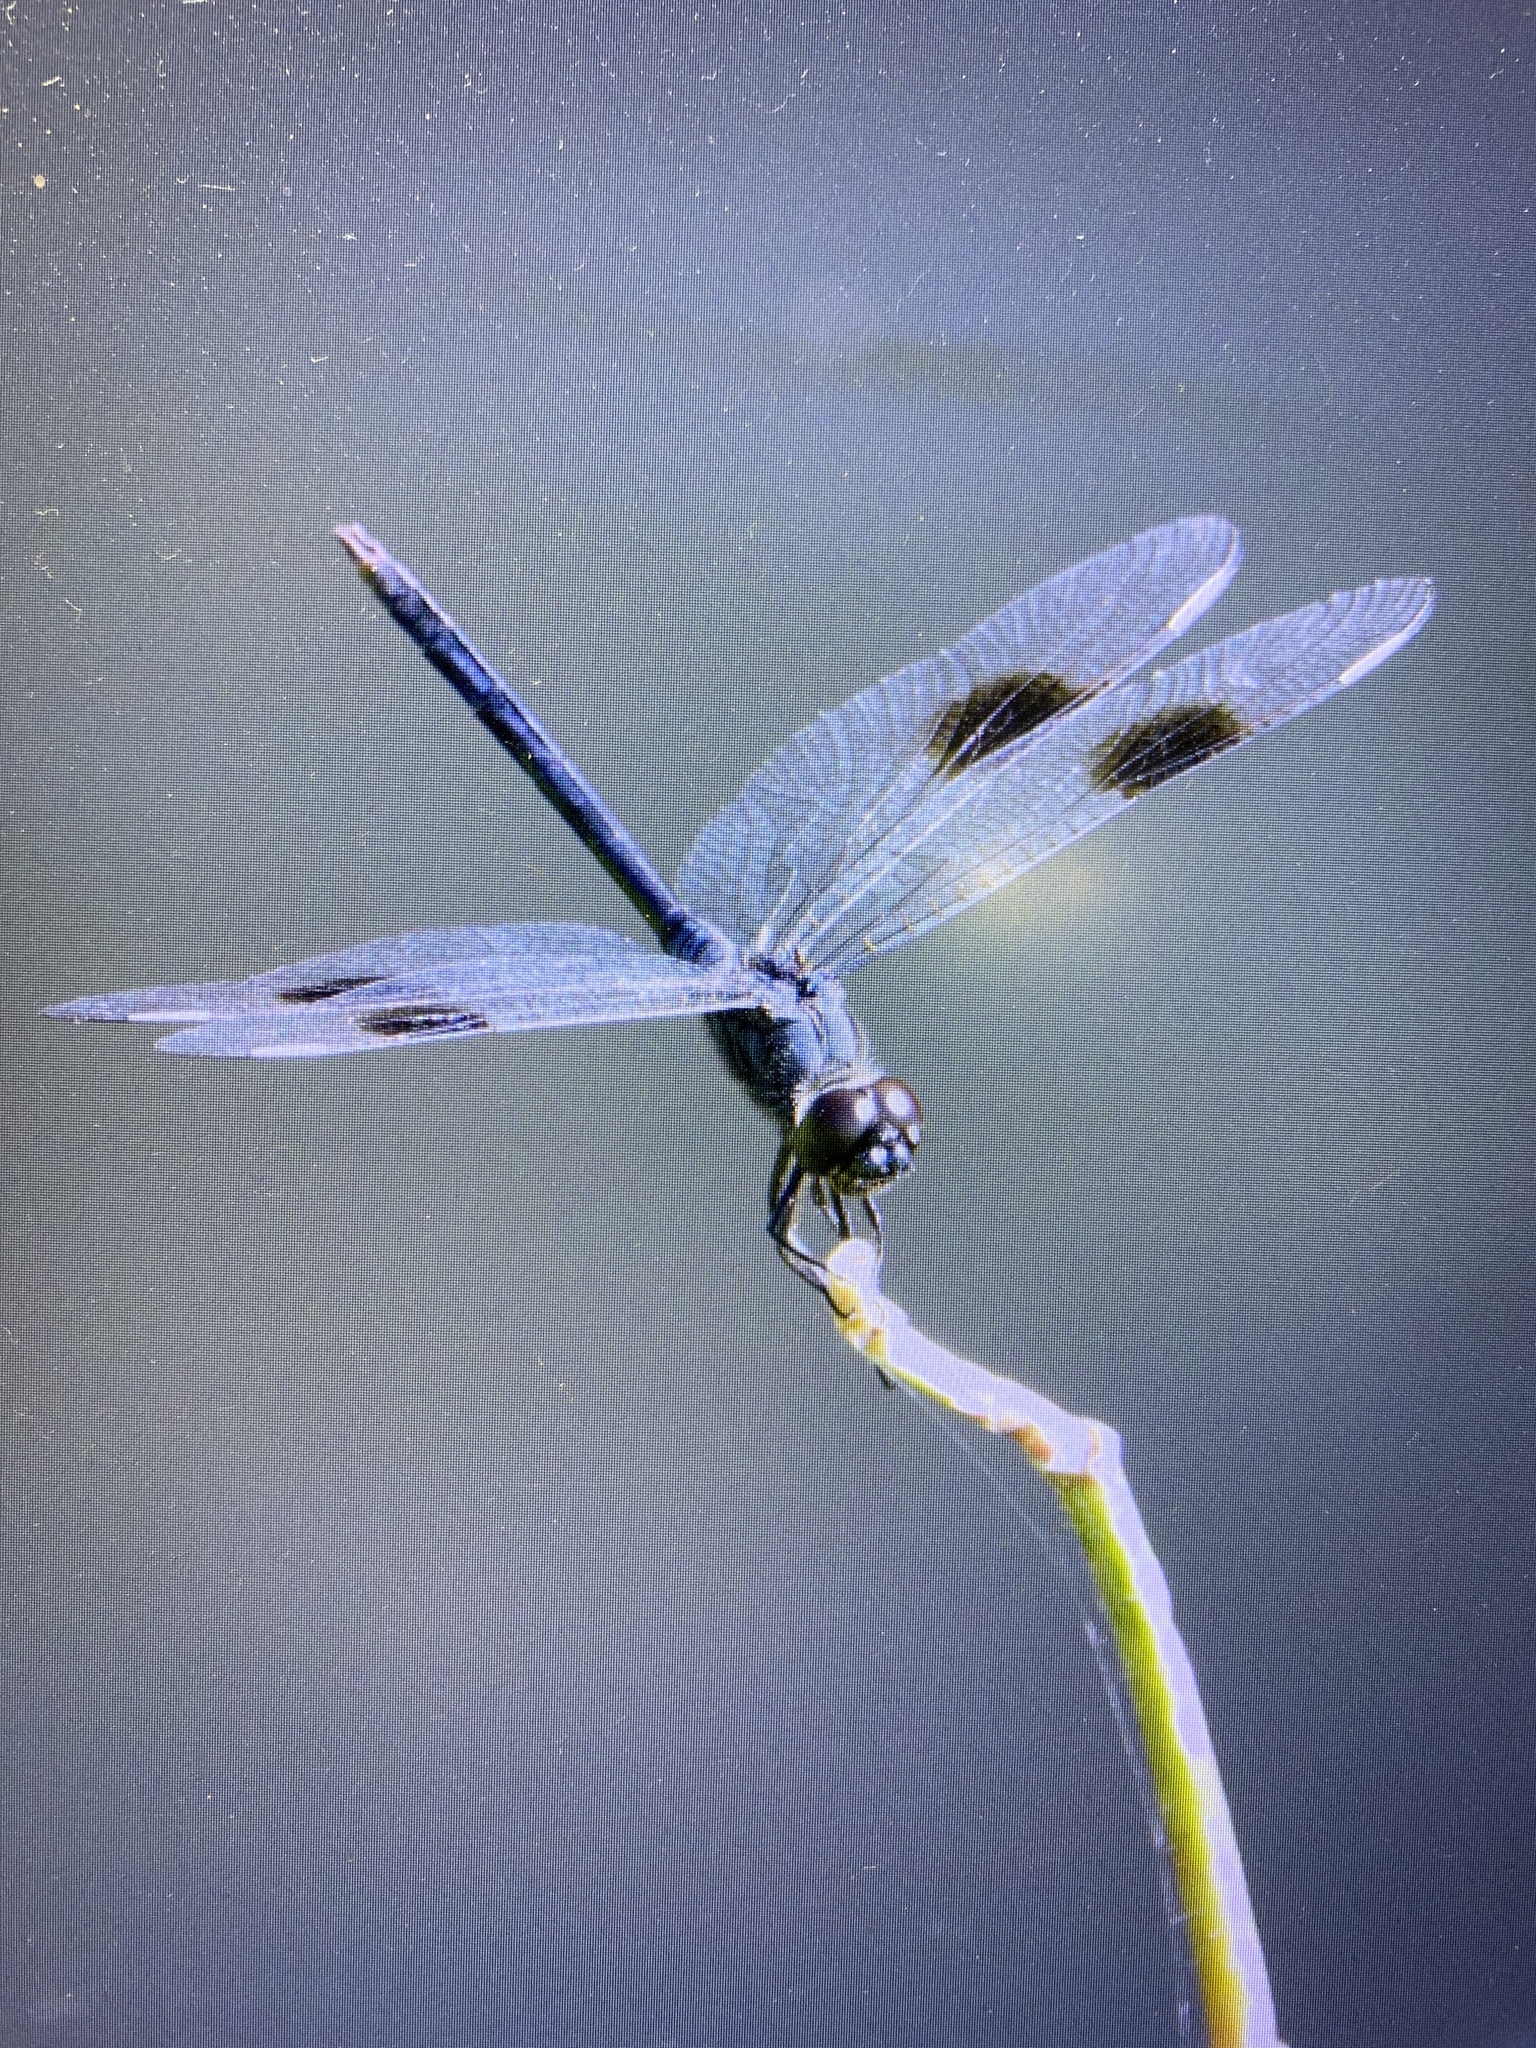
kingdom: Animalia
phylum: Arthropoda
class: Insecta
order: Odonata
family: Libellulidae
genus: Brachymesia
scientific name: Brachymesia gravida
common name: Four-spotted pennant
